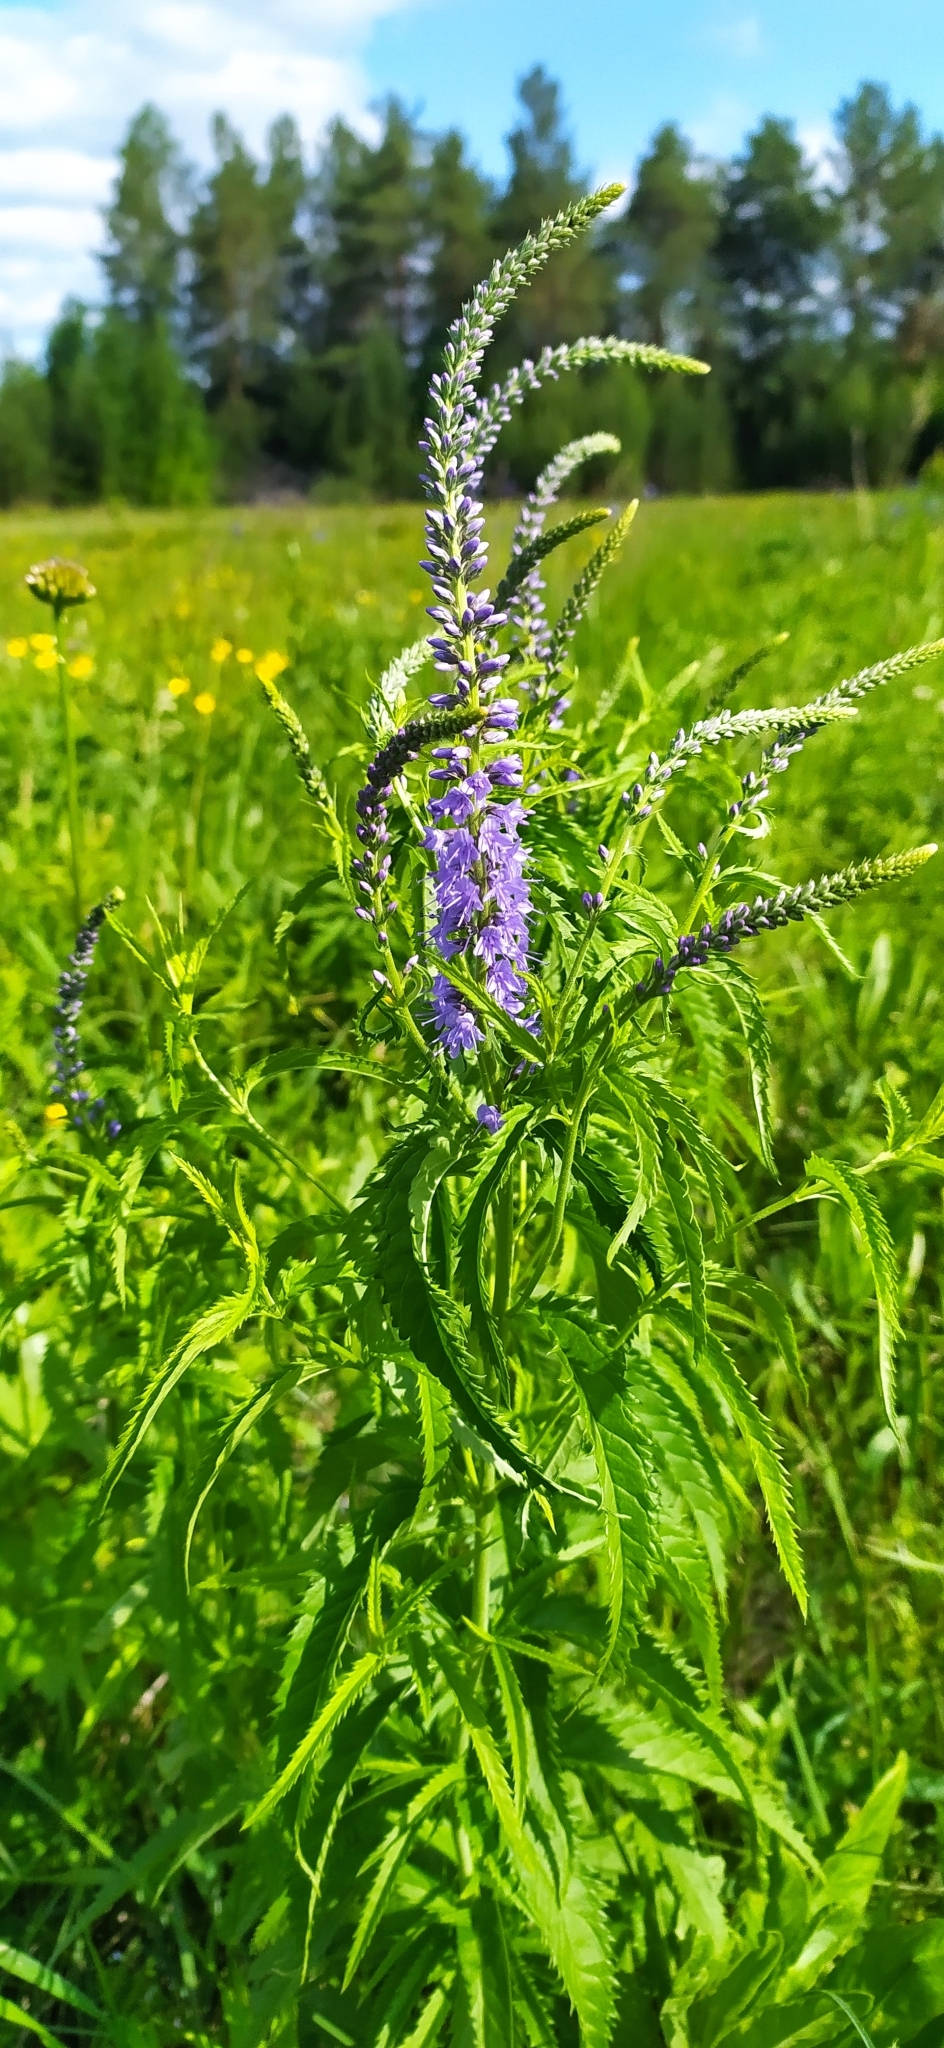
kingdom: Plantae
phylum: Tracheophyta
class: Magnoliopsida
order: Lamiales
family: Plantaginaceae
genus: Veronica
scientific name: Veronica longifolia
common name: Garden speedwell
